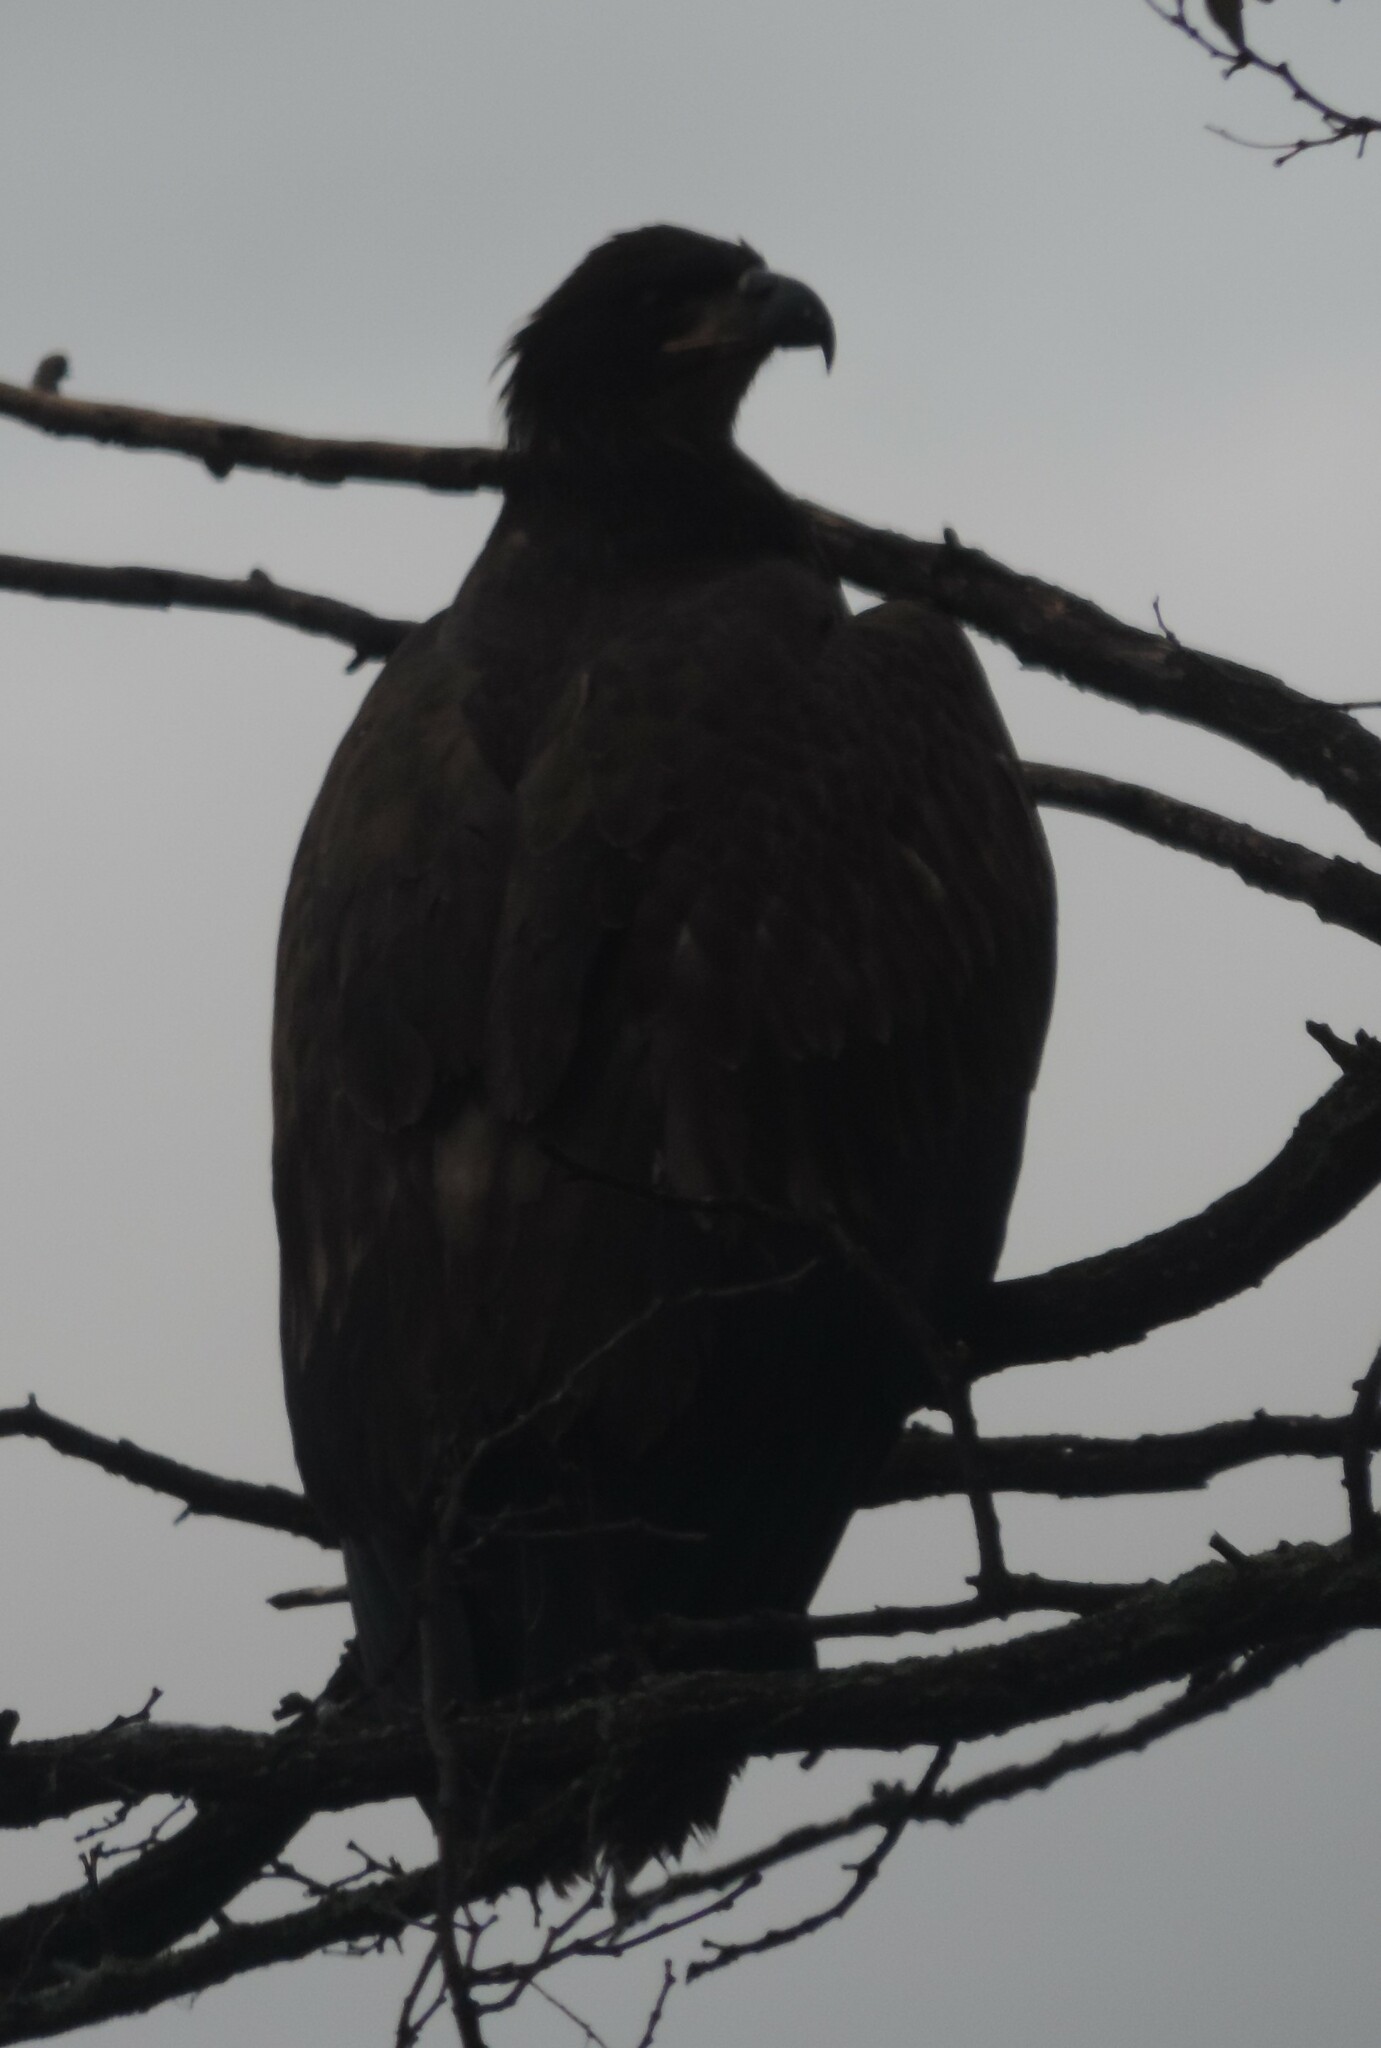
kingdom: Animalia
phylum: Chordata
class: Aves
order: Accipitriformes
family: Accipitridae
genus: Haliaeetus
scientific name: Haliaeetus leucocephalus
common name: Bald eagle
